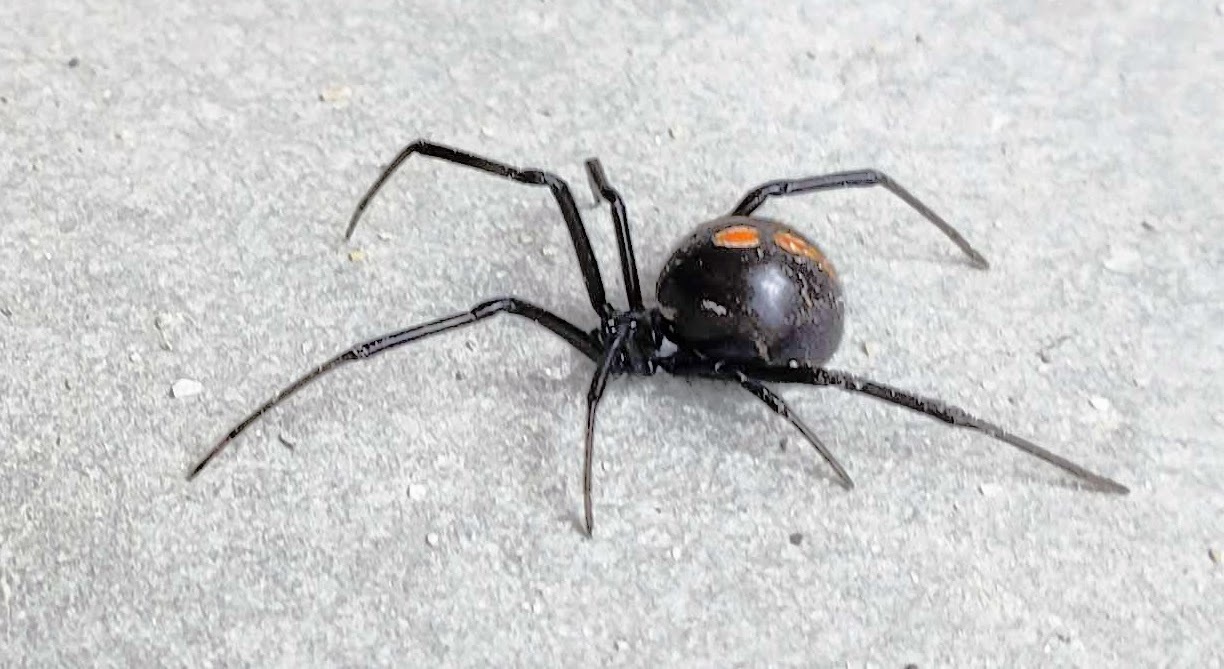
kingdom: Animalia
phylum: Arthropoda
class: Arachnida
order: Araneae
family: Theridiidae
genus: Latrodectus
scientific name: Latrodectus hesperus
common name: Western black widow
